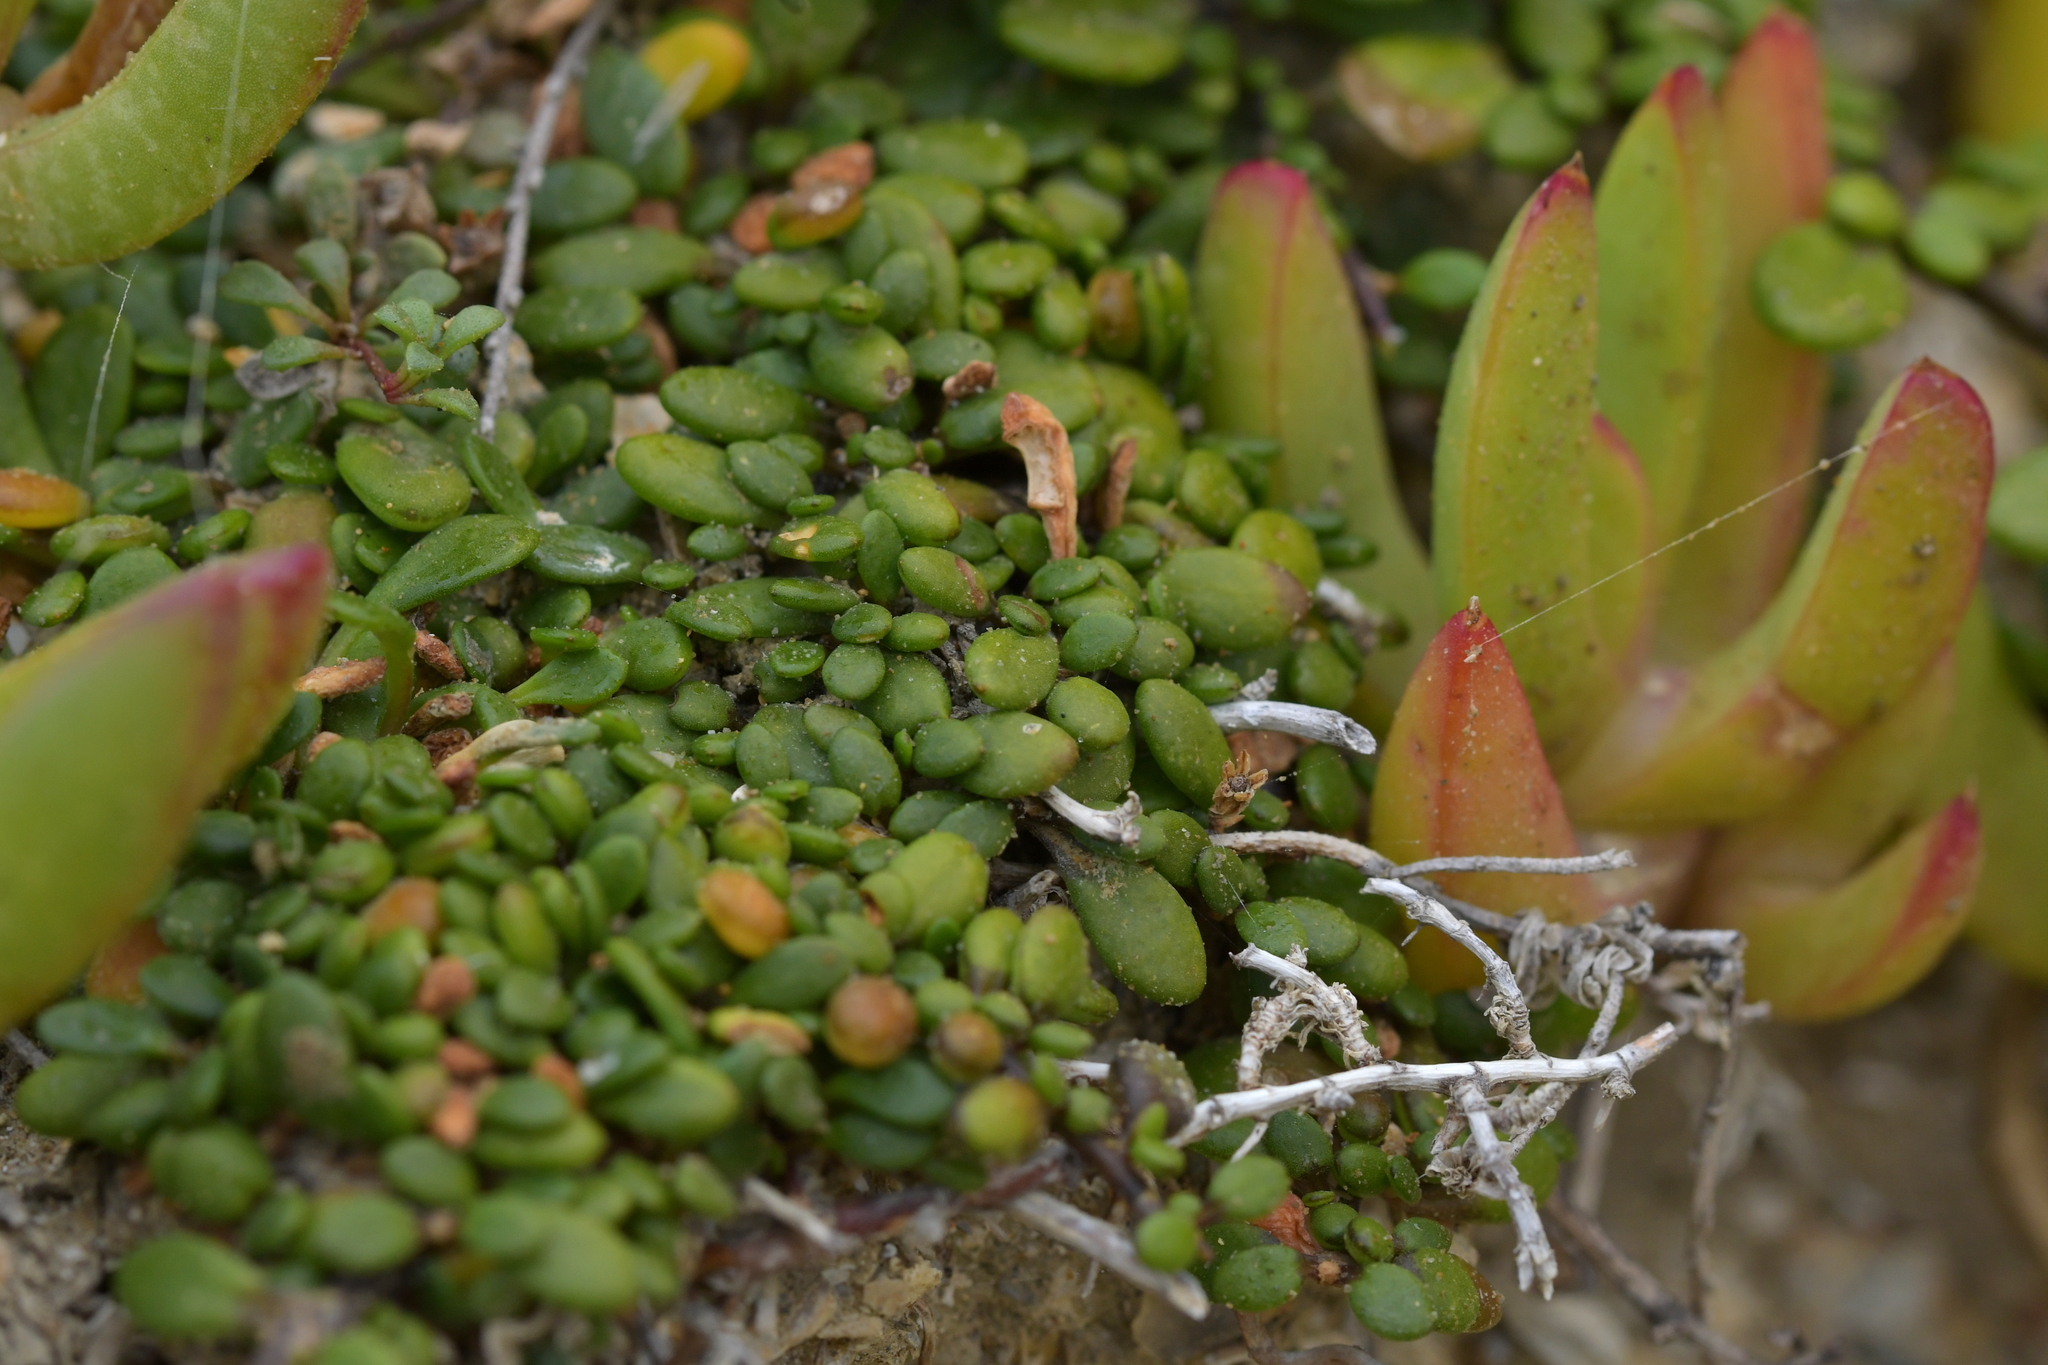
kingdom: Plantae
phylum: Tracheophyta
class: Magnoliopsida
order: Asterales
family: Goodeniaceae
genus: Goodenia
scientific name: Goodenia radicans
